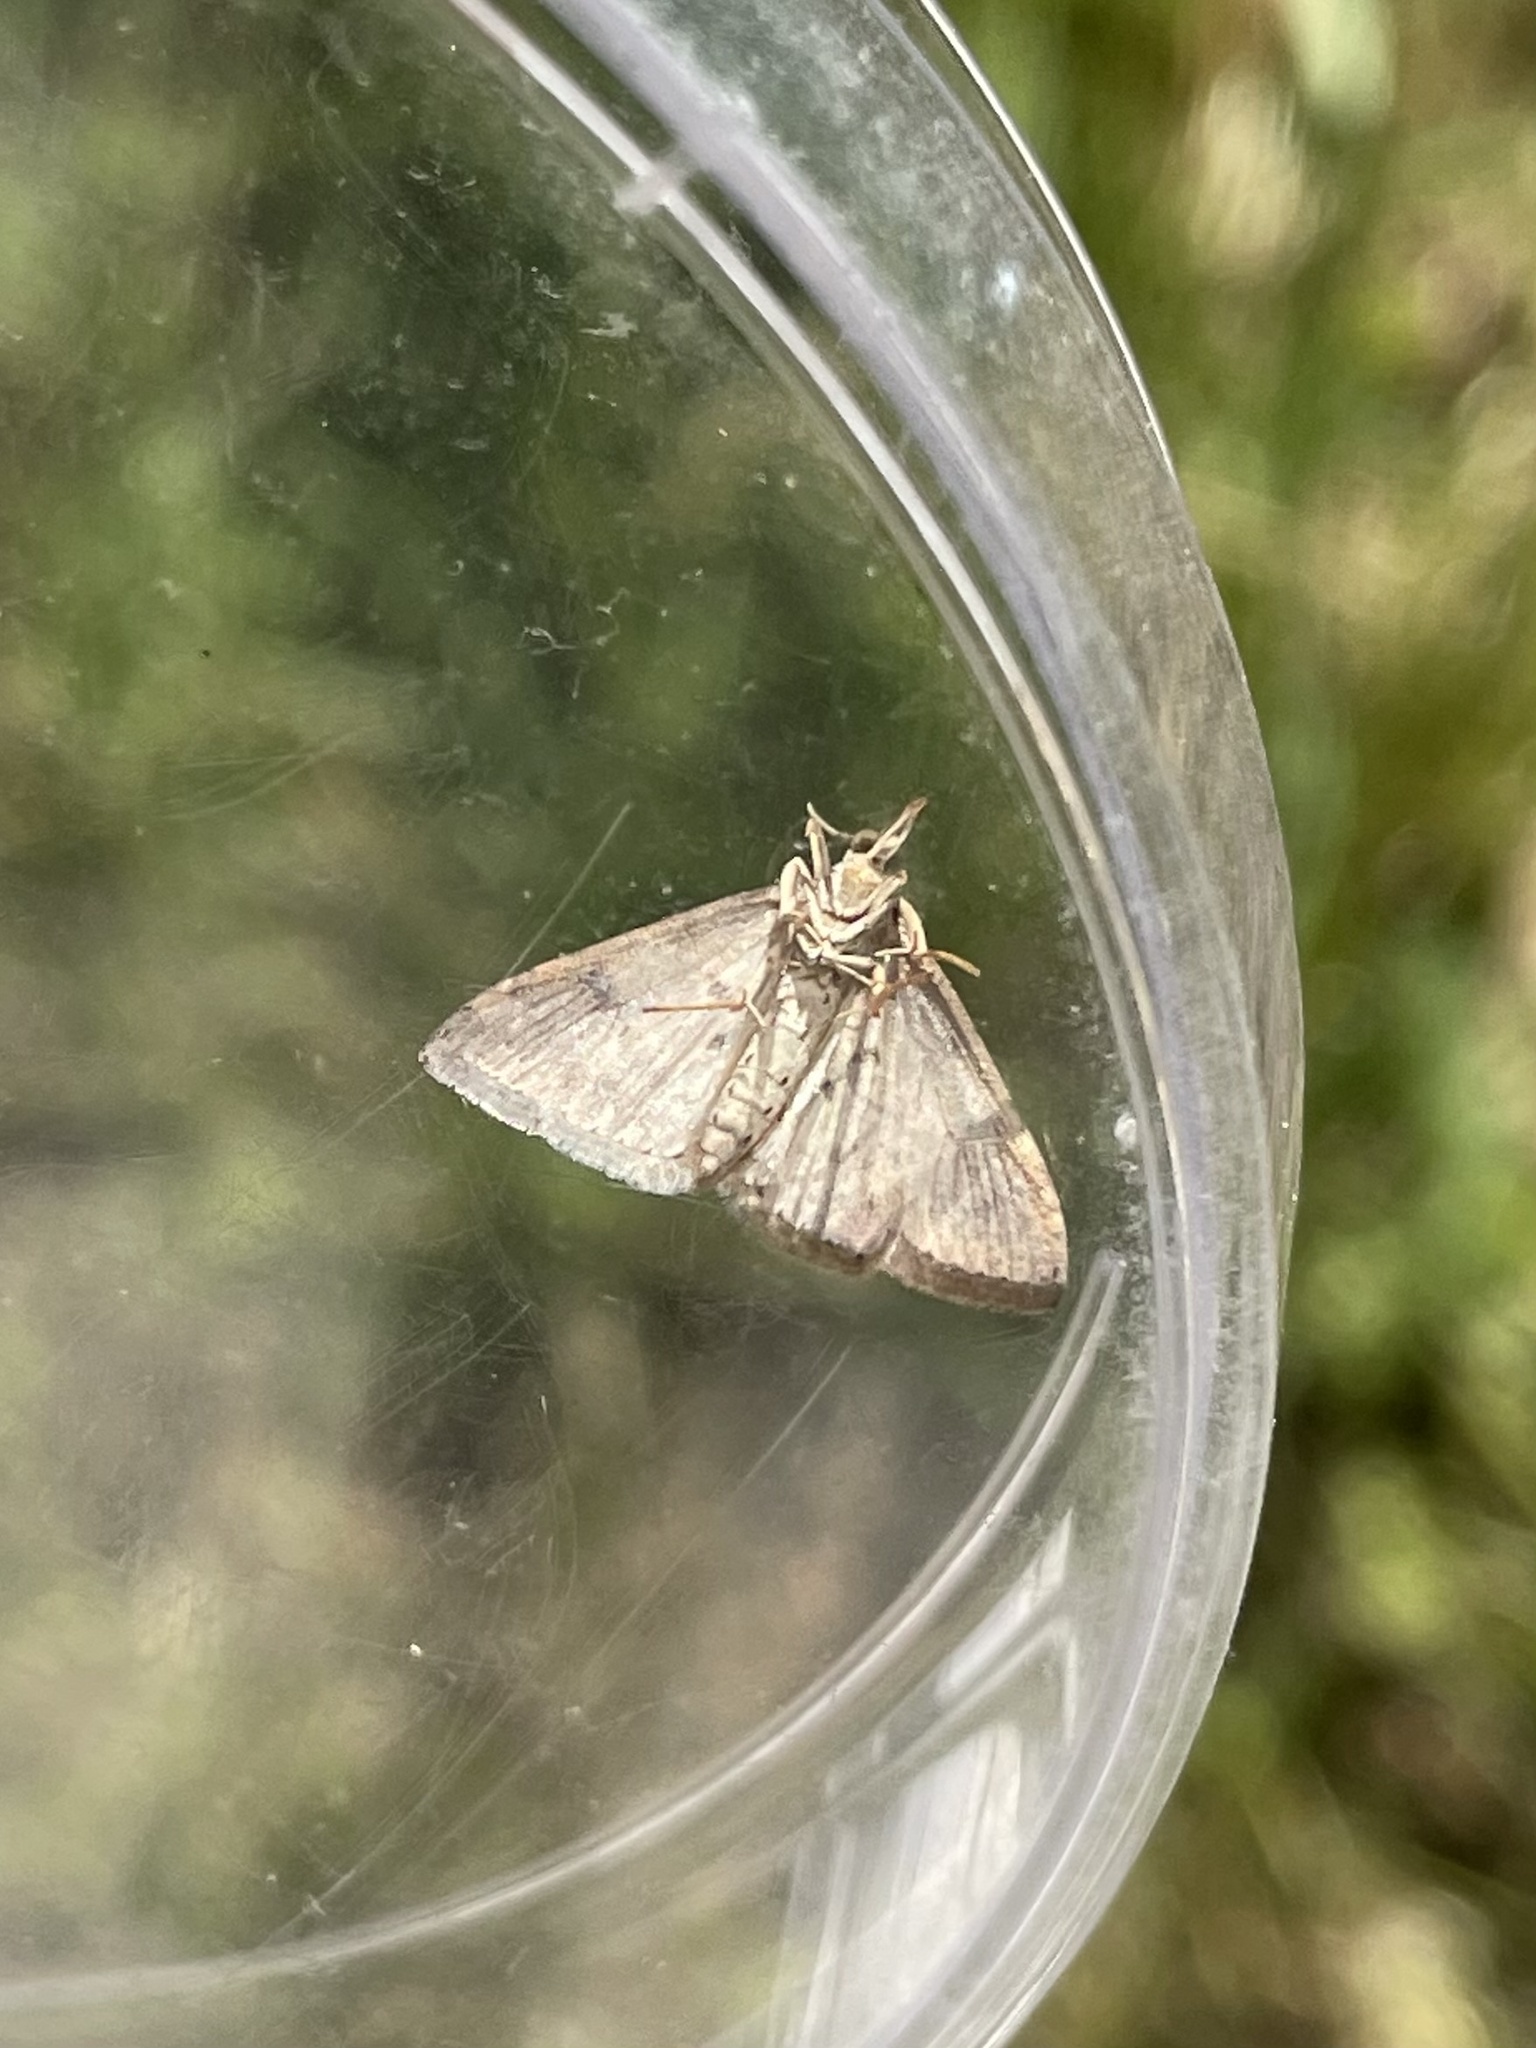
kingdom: Animalia
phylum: Arthropoda
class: Insecta
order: Lepidoptera
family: Crambidae
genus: Udea
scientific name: Udea rubigalis
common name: Celery leaftier moth
